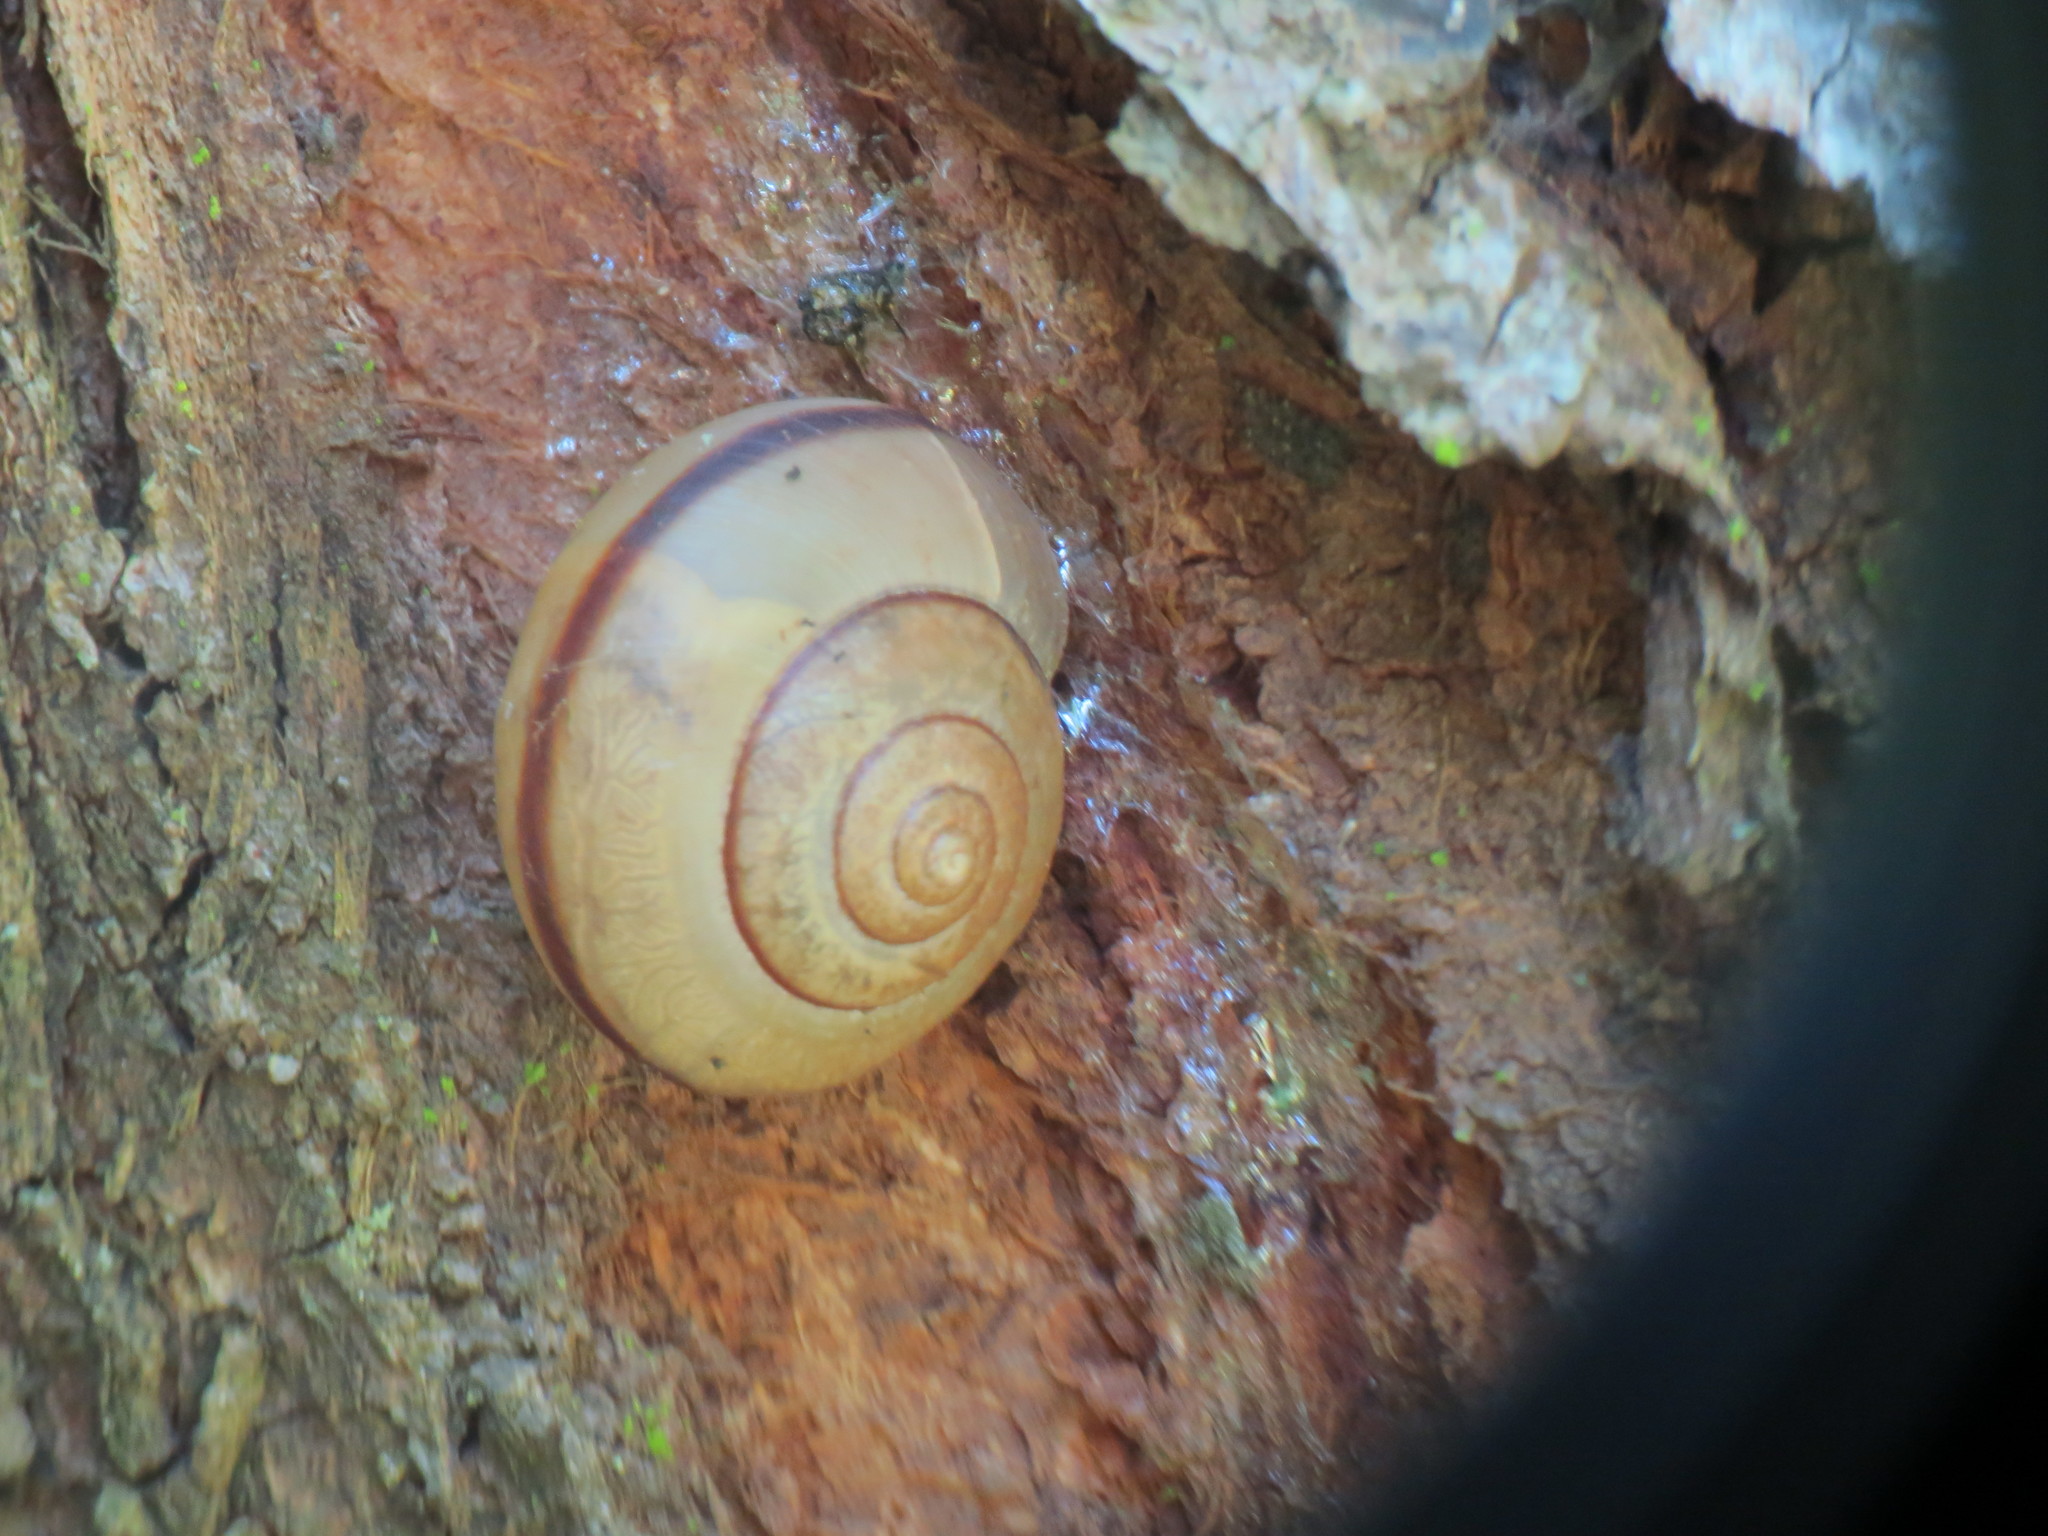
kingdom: Animalia
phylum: Mollusca
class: Gastropoda
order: Stylommatophora
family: Camaenidae
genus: Bradybaena
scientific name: Bradybaena similaris
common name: Asian trampsnail
